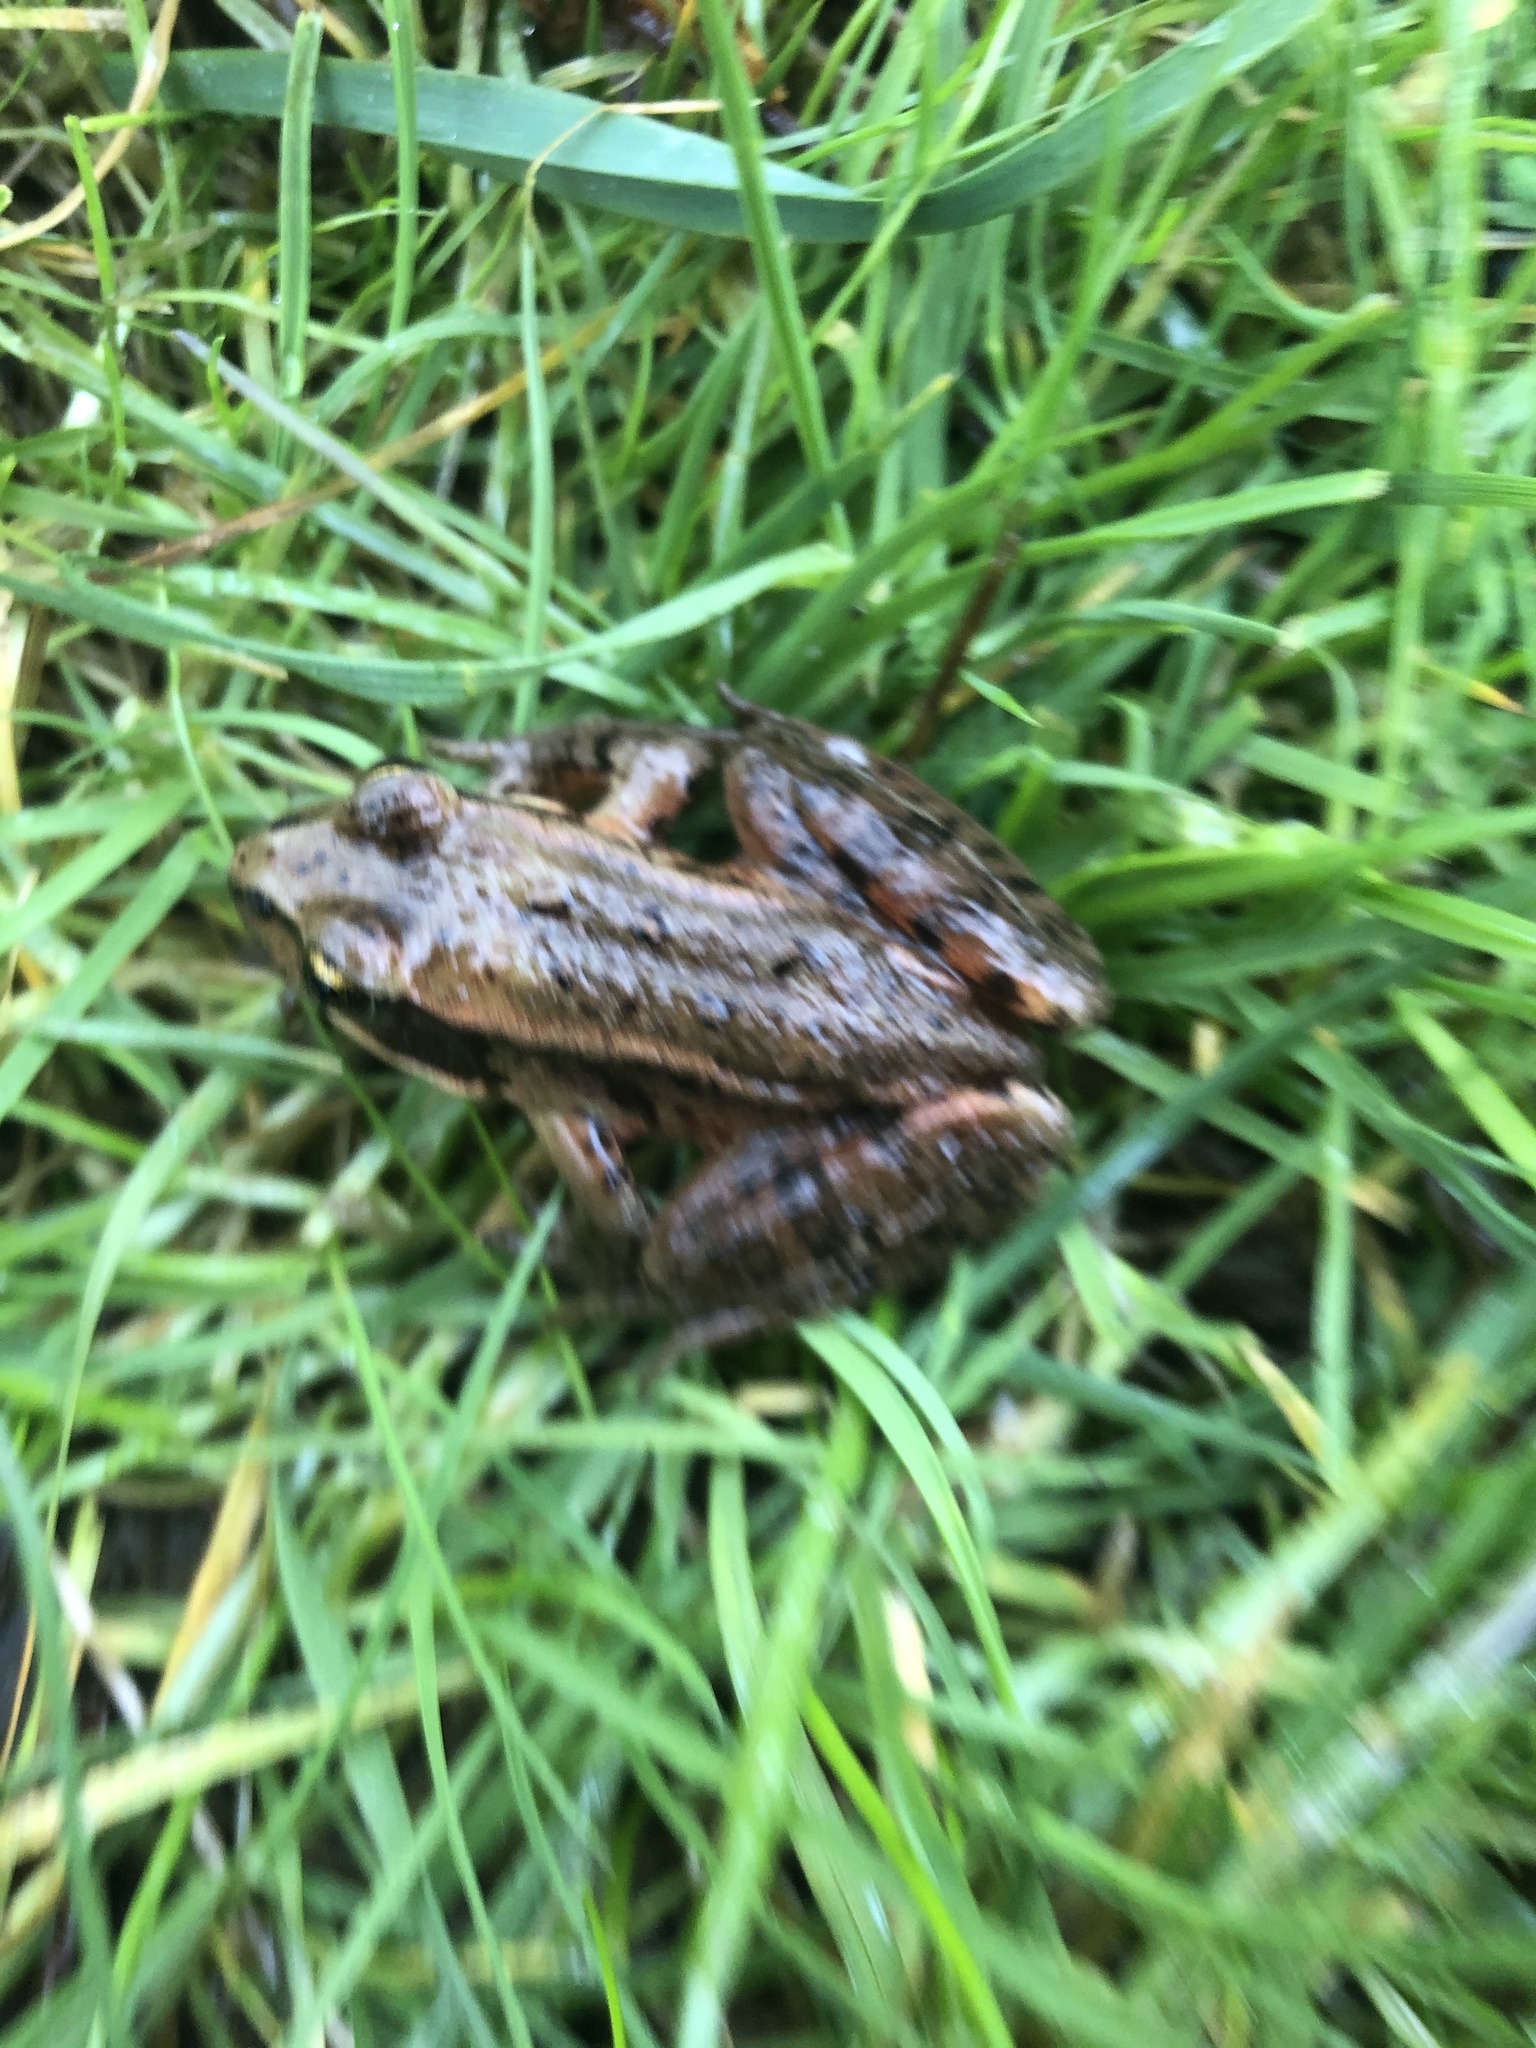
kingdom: Animalia
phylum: Chordata
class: Amphibia
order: Anura
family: Ranidae
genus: Rana
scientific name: Rana aurora
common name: Red-legged frog
